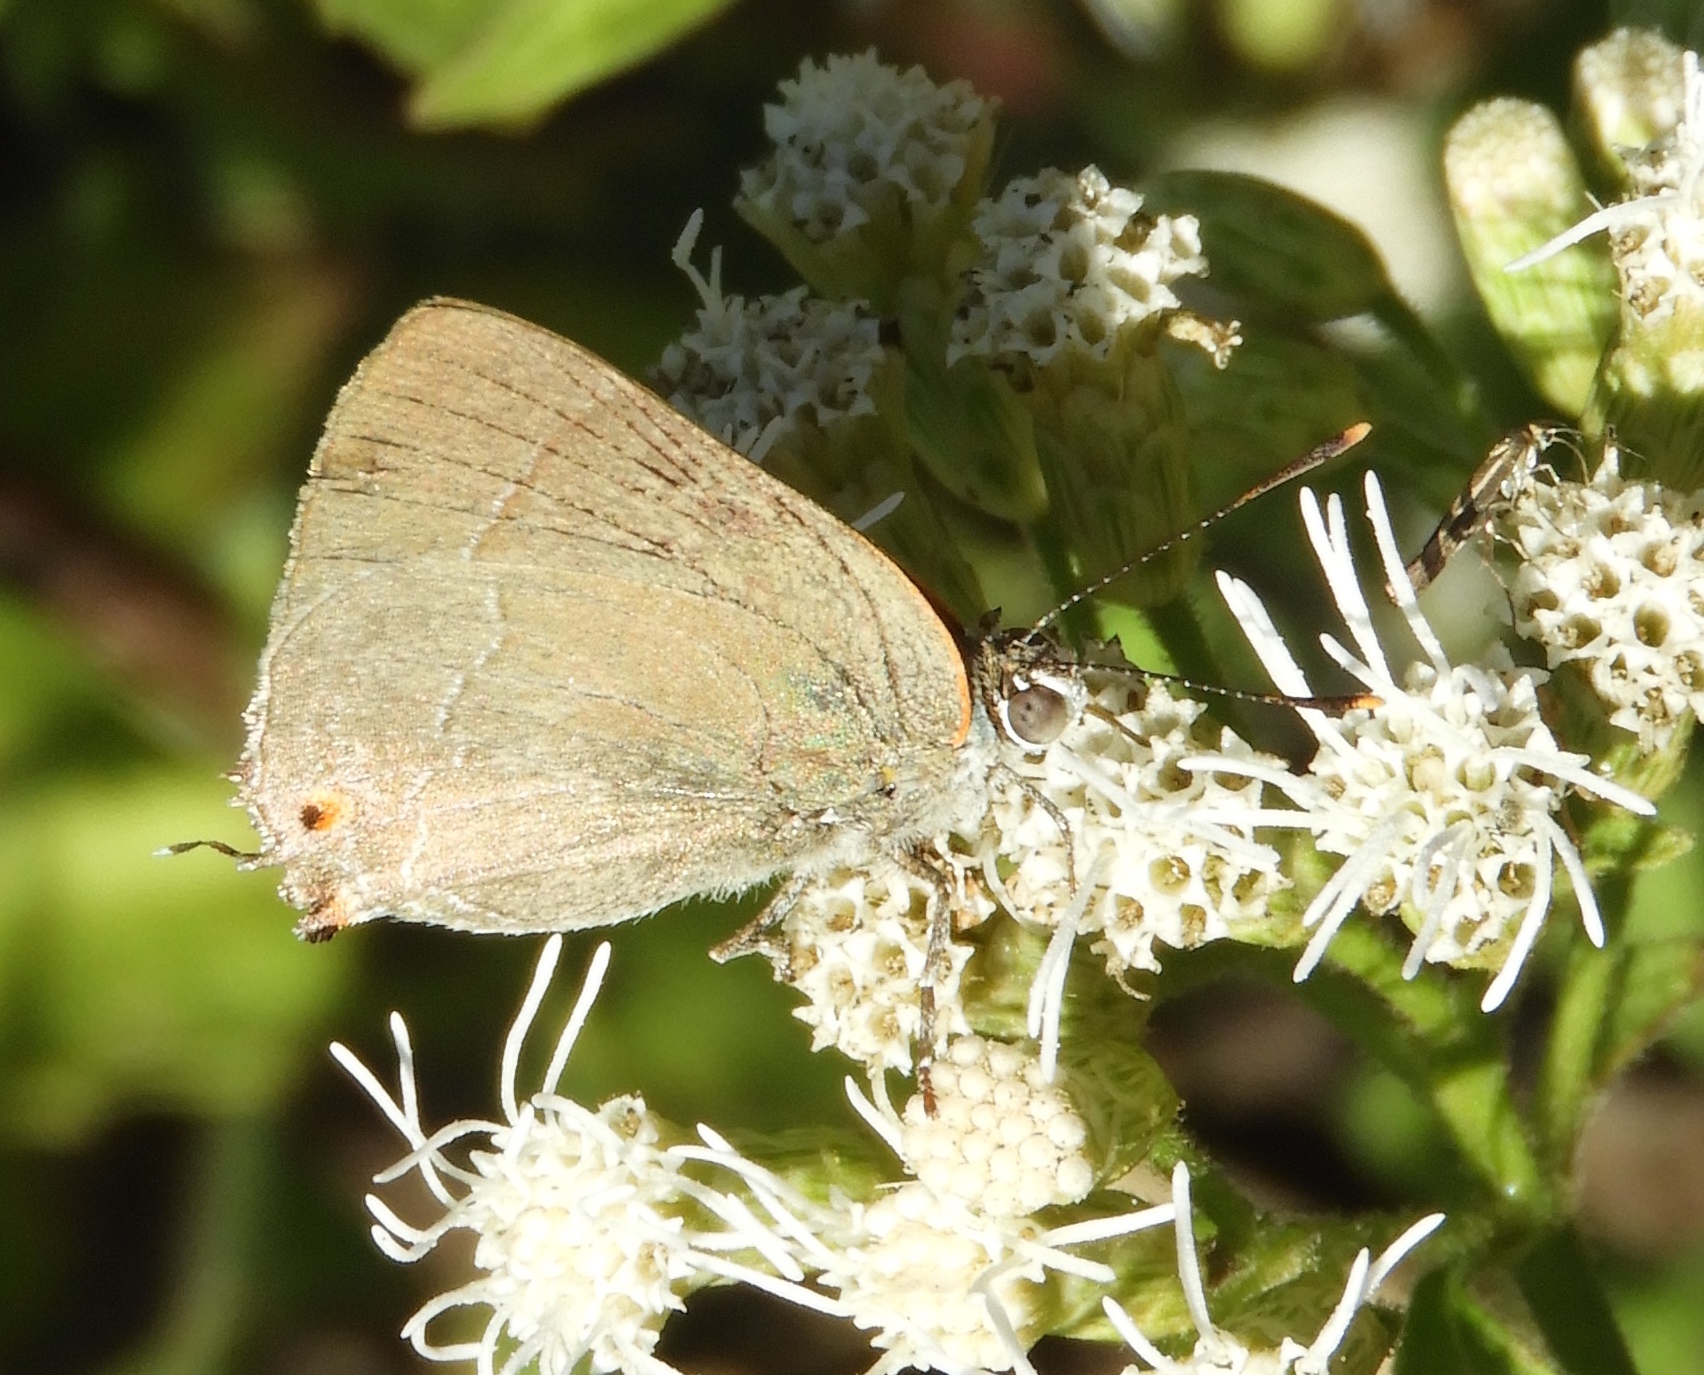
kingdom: Animalia
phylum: Arthropoda
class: Insecta
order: Lepidoptera
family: Lycaenidae
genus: Thecla
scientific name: Thecla marius
